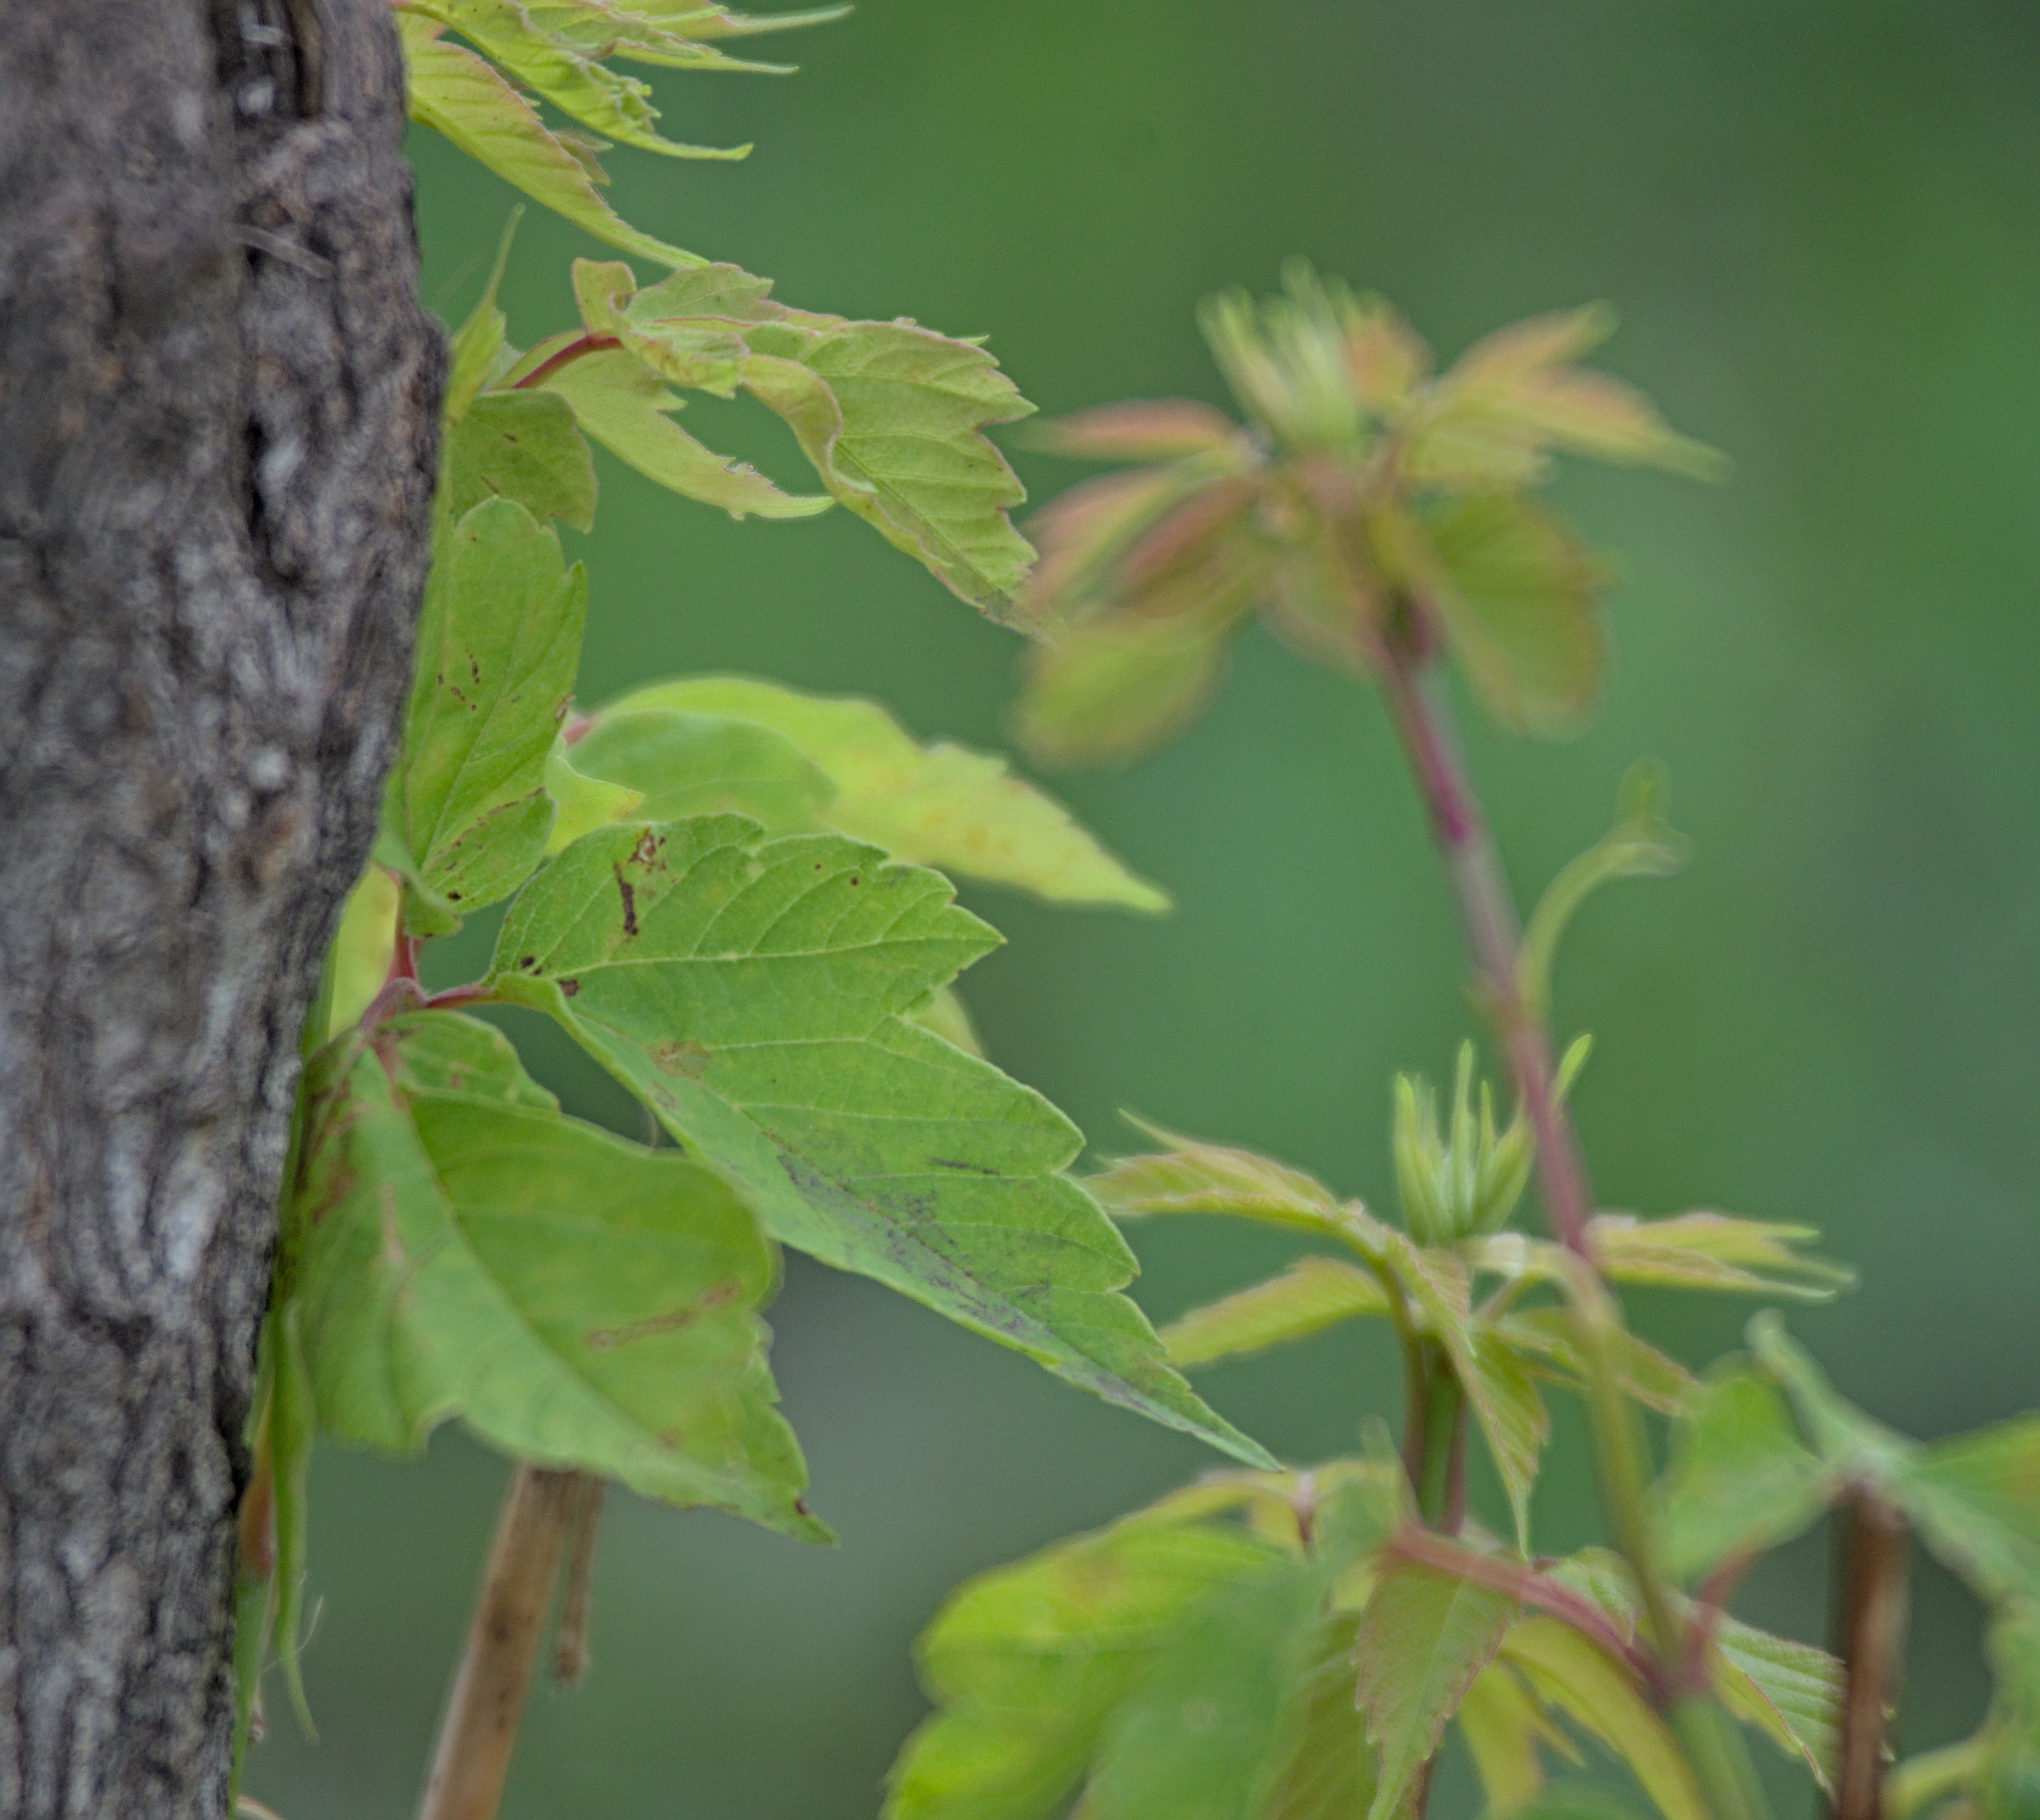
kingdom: Plantae
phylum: Tracheophyta
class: Magnoliopsida
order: Sapindales
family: Sapindaceae
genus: Acer
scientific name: Acer negundo
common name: Ashleaf maple
